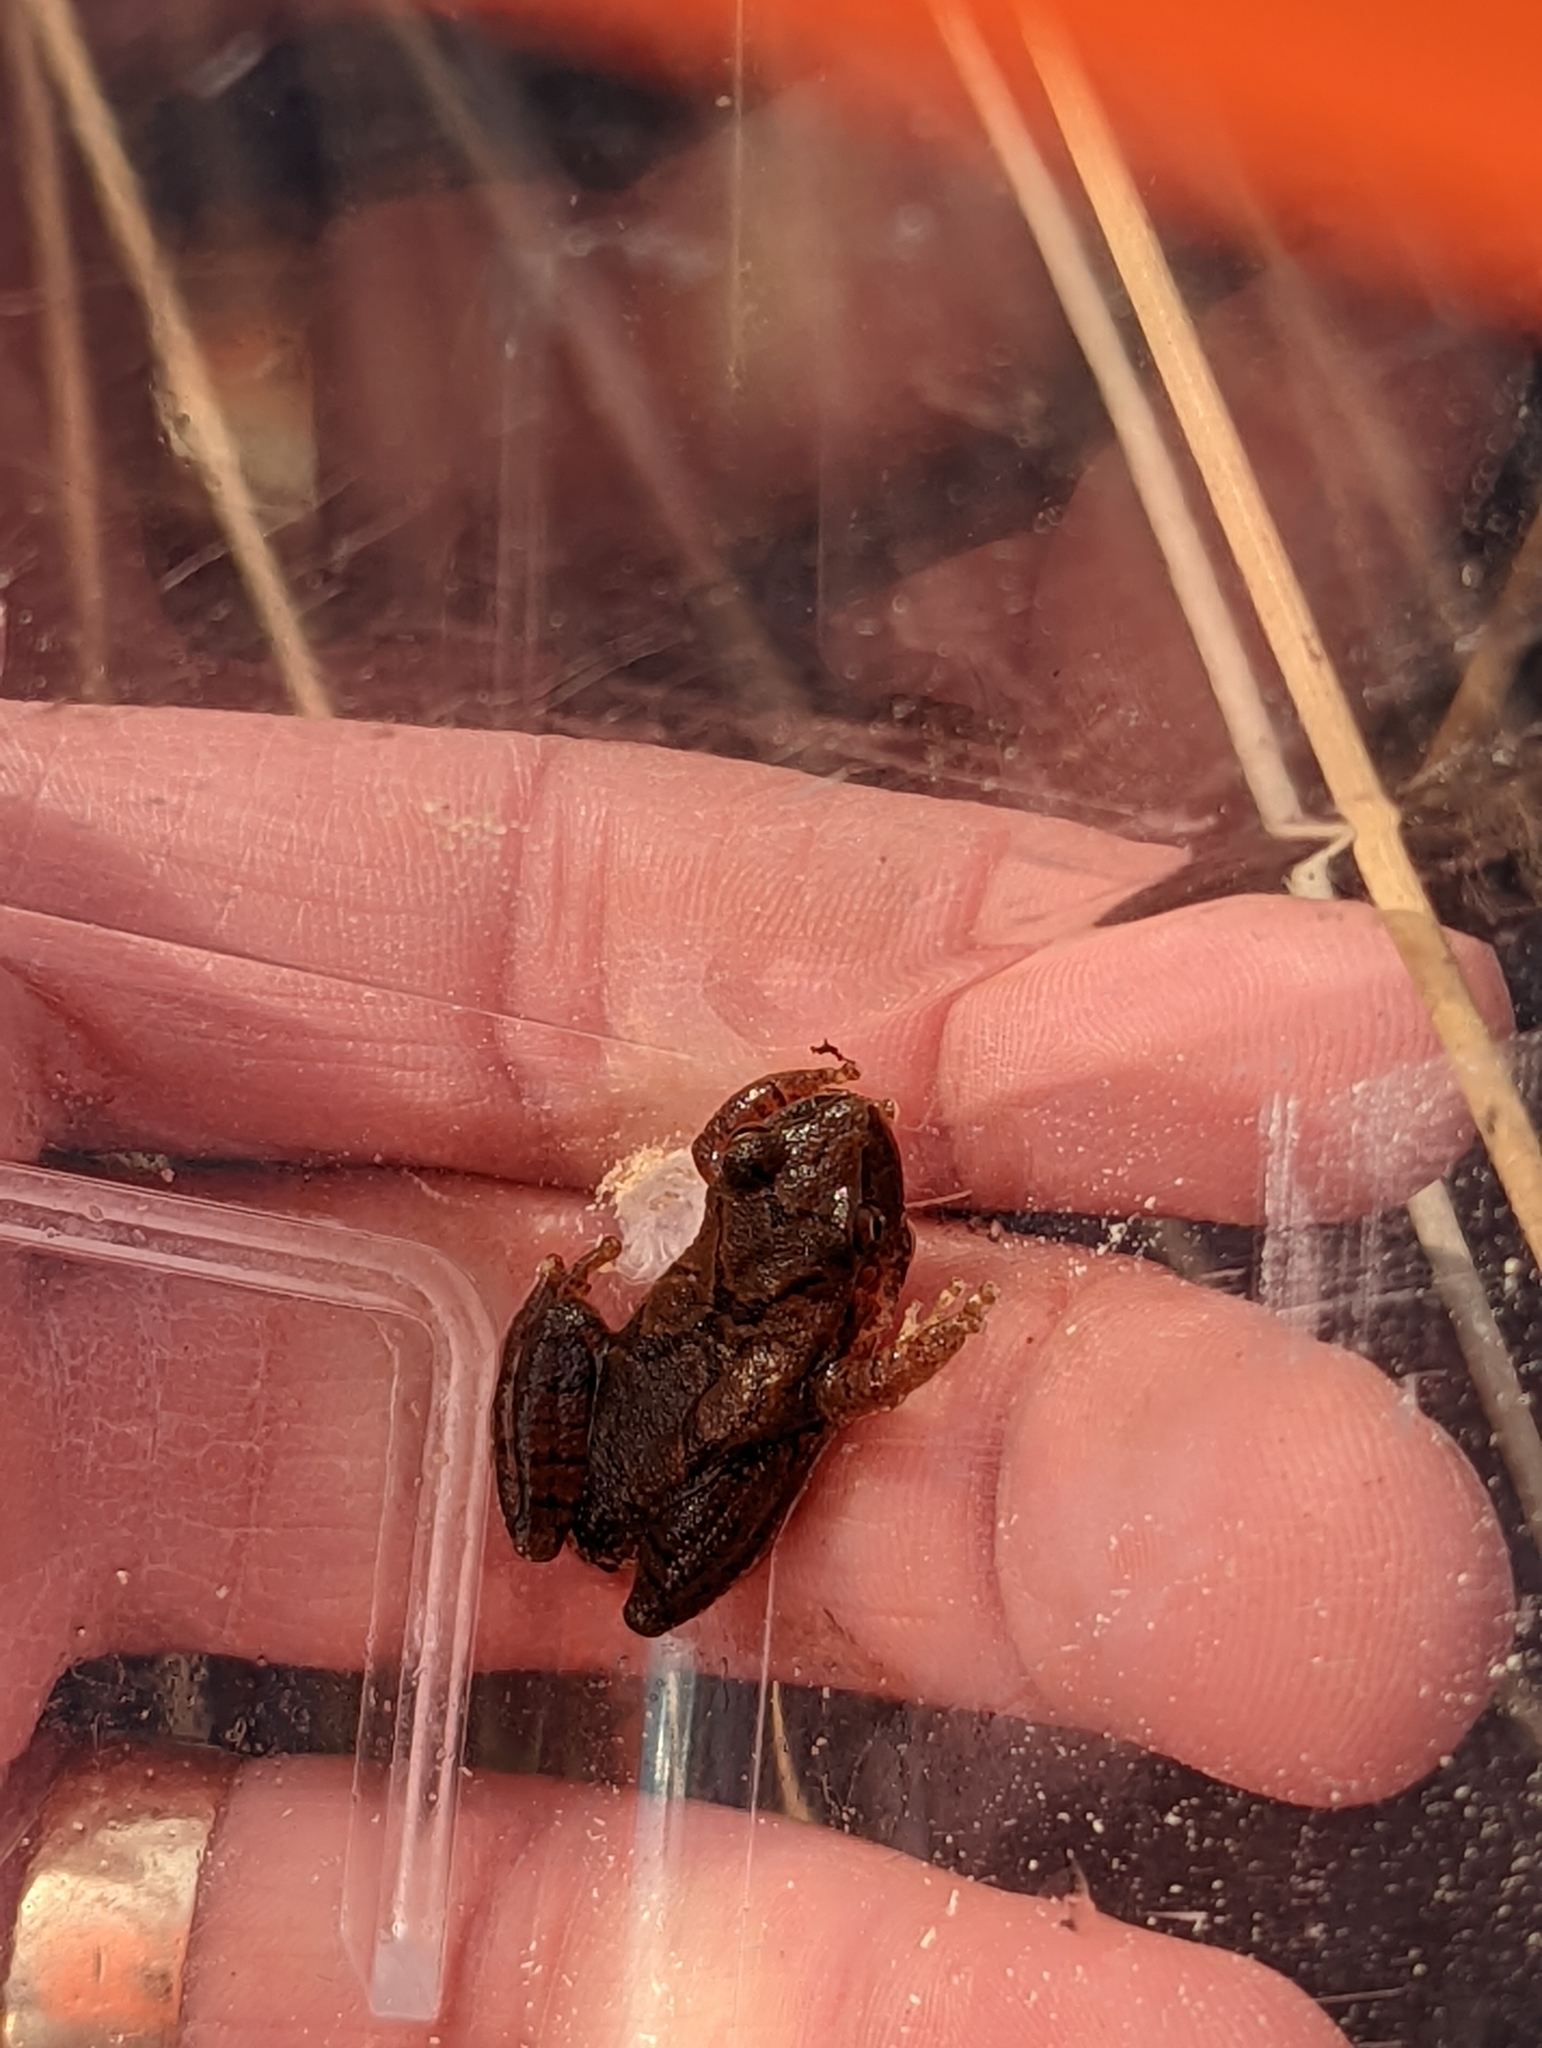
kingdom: Animalia
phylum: Chordata
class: Amphibia
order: Anura
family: Hylidae
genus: Pseudacris
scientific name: Pseudacris crucifer
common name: Spring peeper
